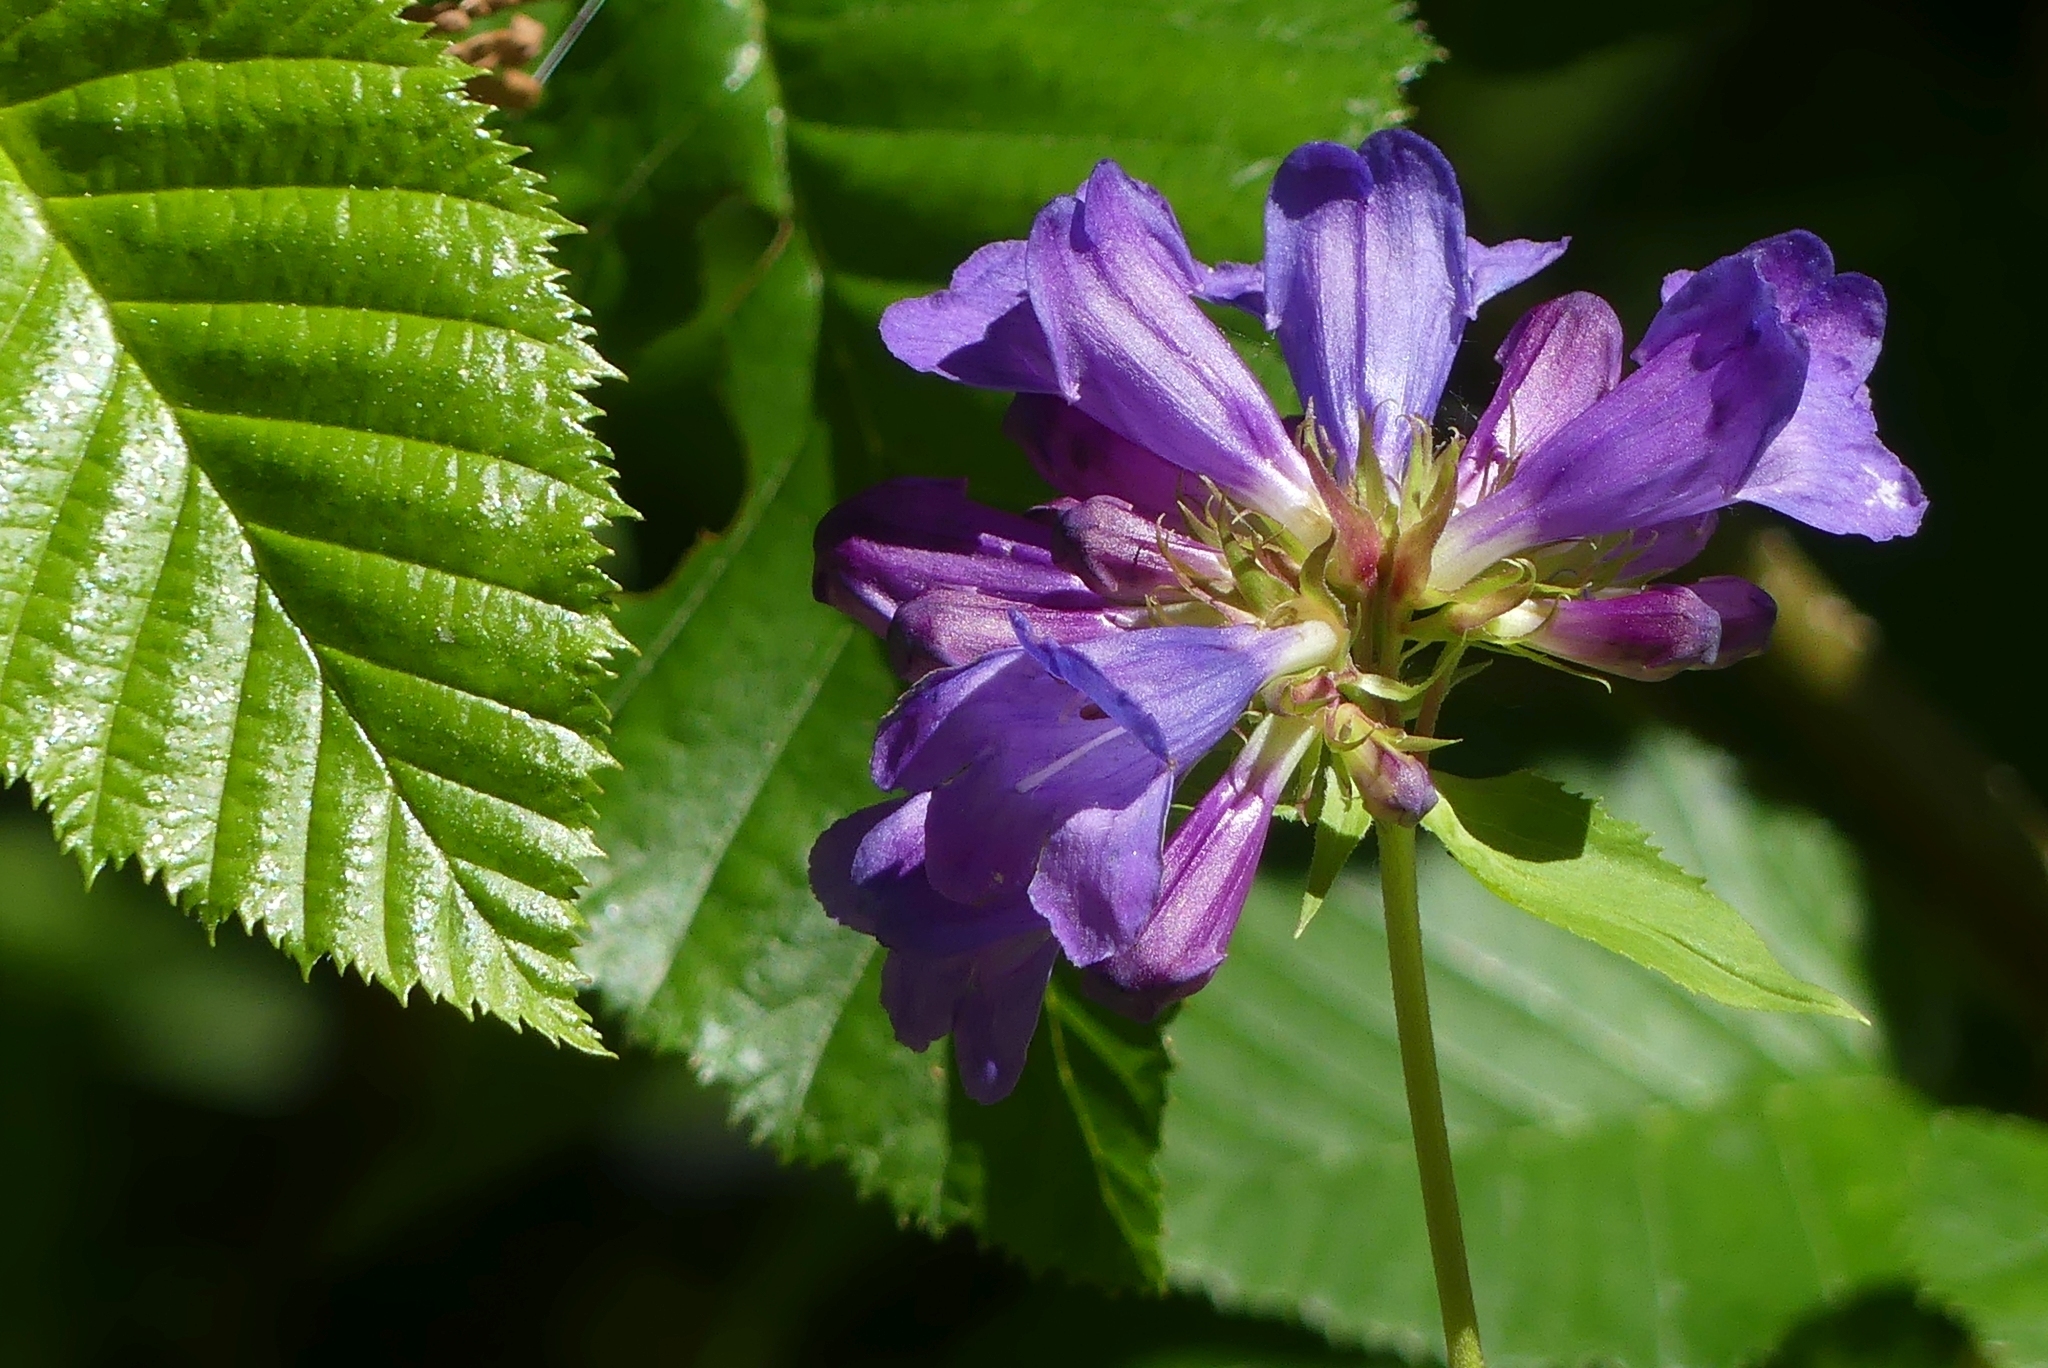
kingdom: Plantae
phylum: Tracheophyta
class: Magnoliopsida
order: Lamiales
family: Plantaginaceae
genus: Penstemon
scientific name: Penstemon serrulatus
